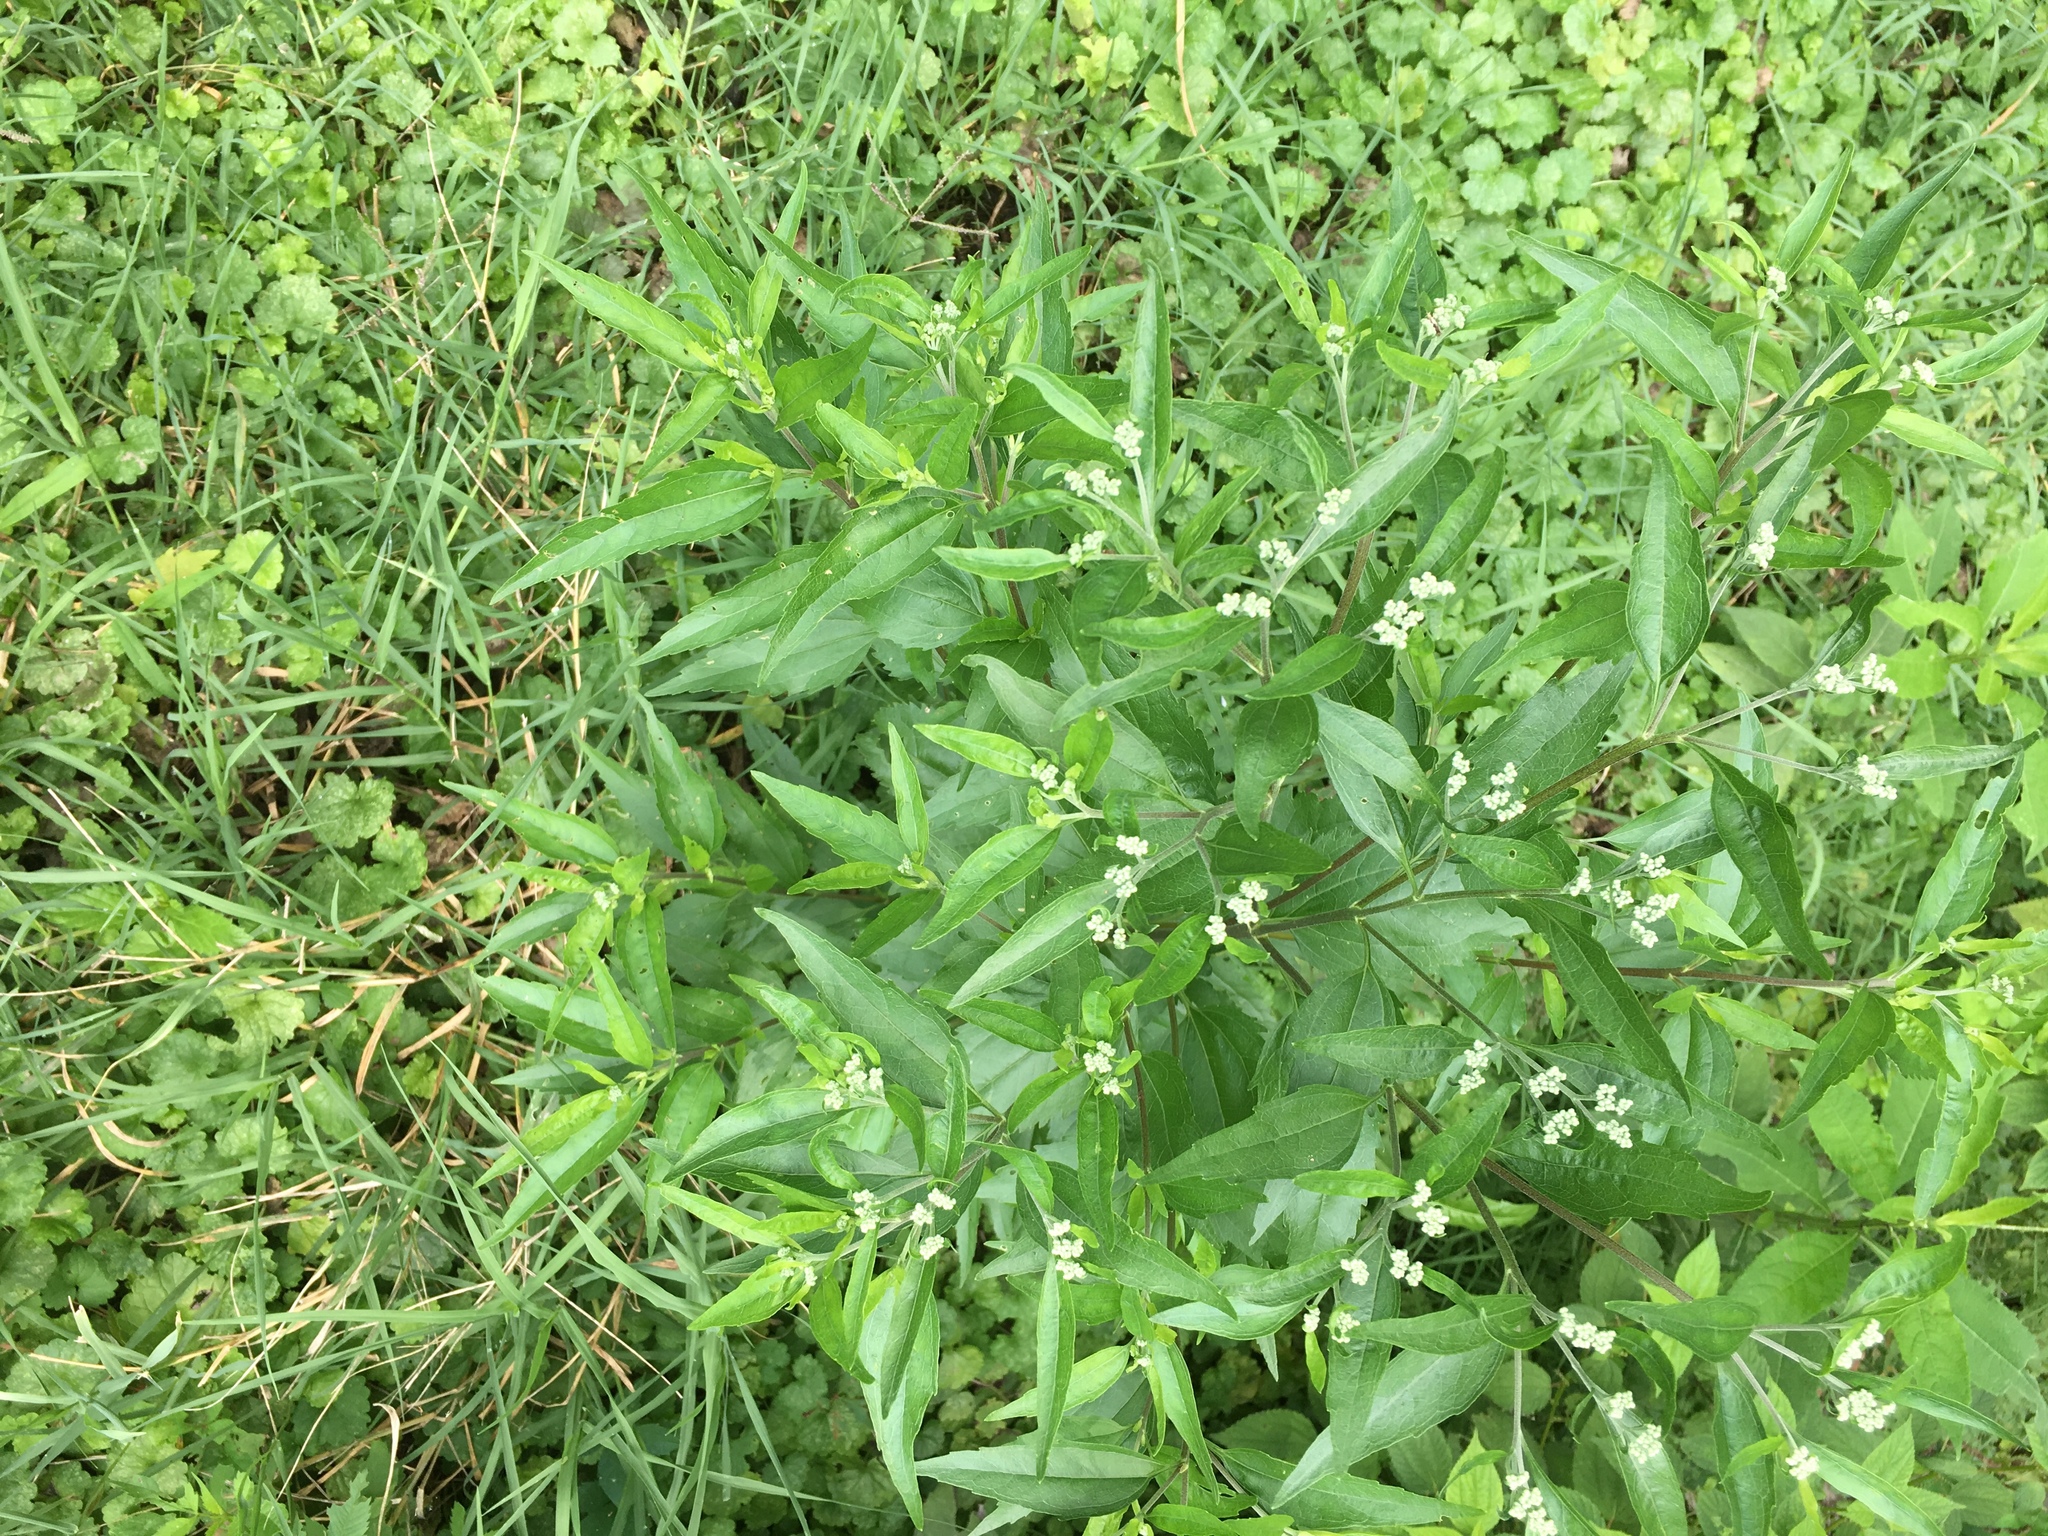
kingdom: Plantae
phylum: Tracheophyta
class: Magnoliopsida
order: Asterales
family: Asteraceae
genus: Eupatorium
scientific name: Eupatorium serotinum
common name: Late boneset
